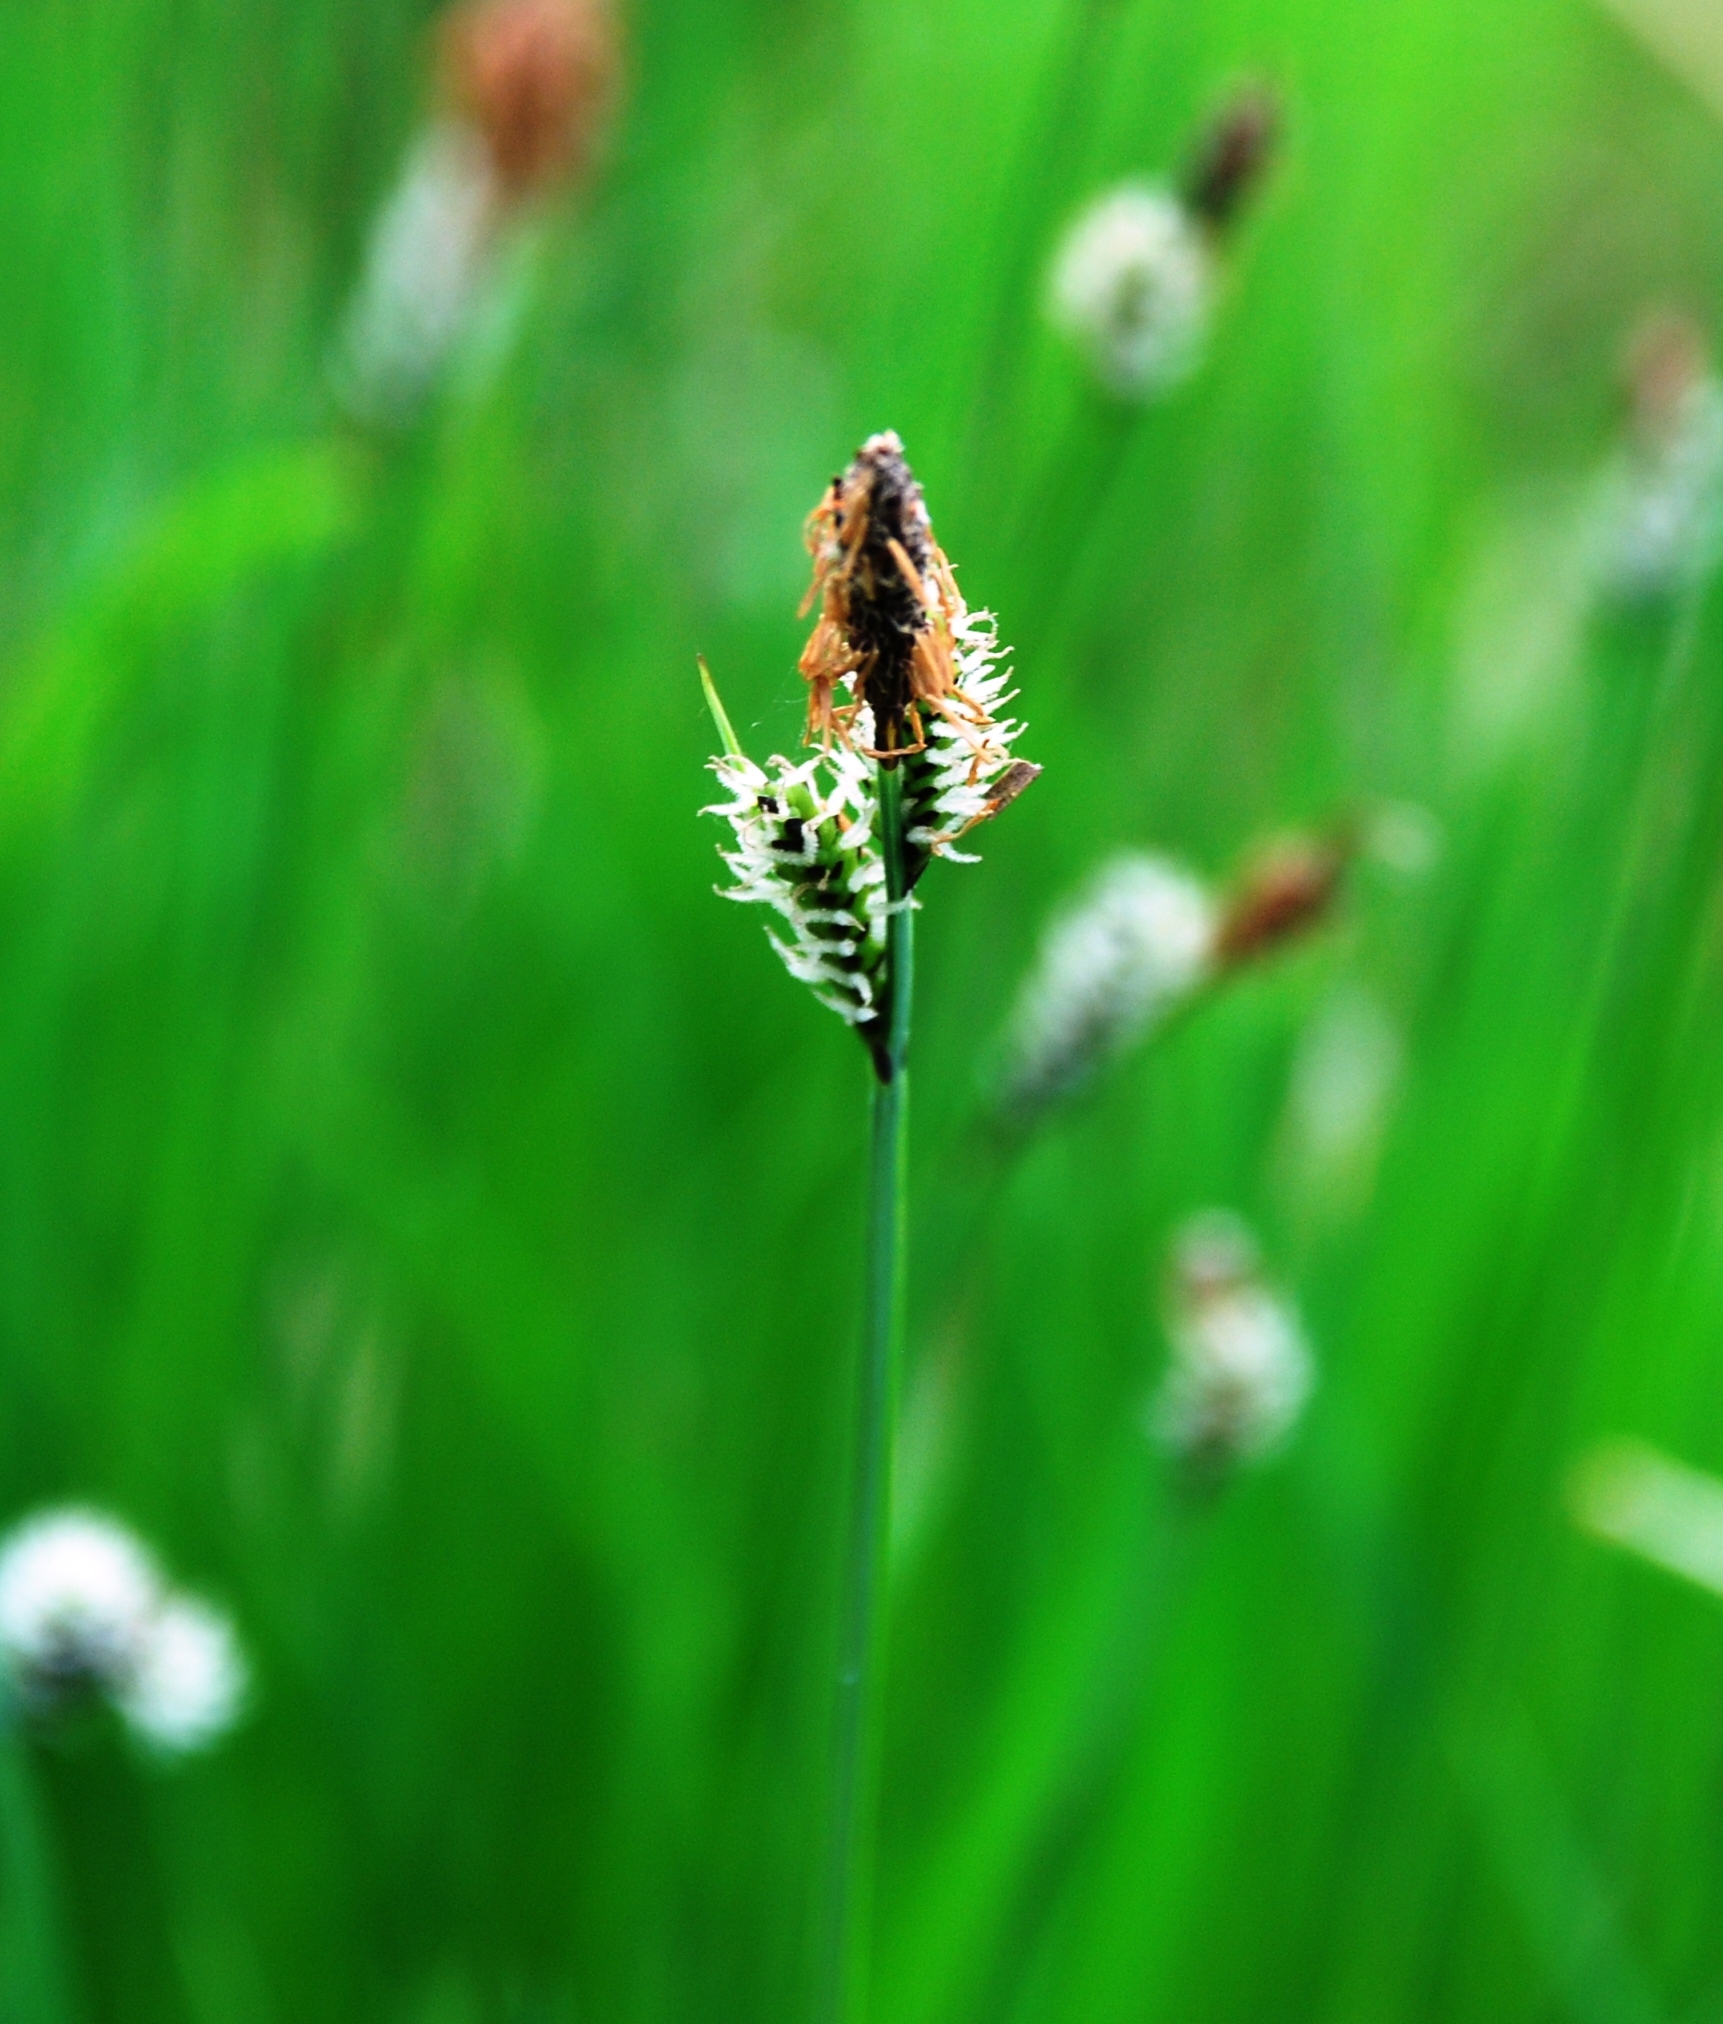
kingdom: Plantae
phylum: Tracheophyta
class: Liliopsida
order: Poales
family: Cyperaceae
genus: Carex
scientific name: Carex cespitosa
